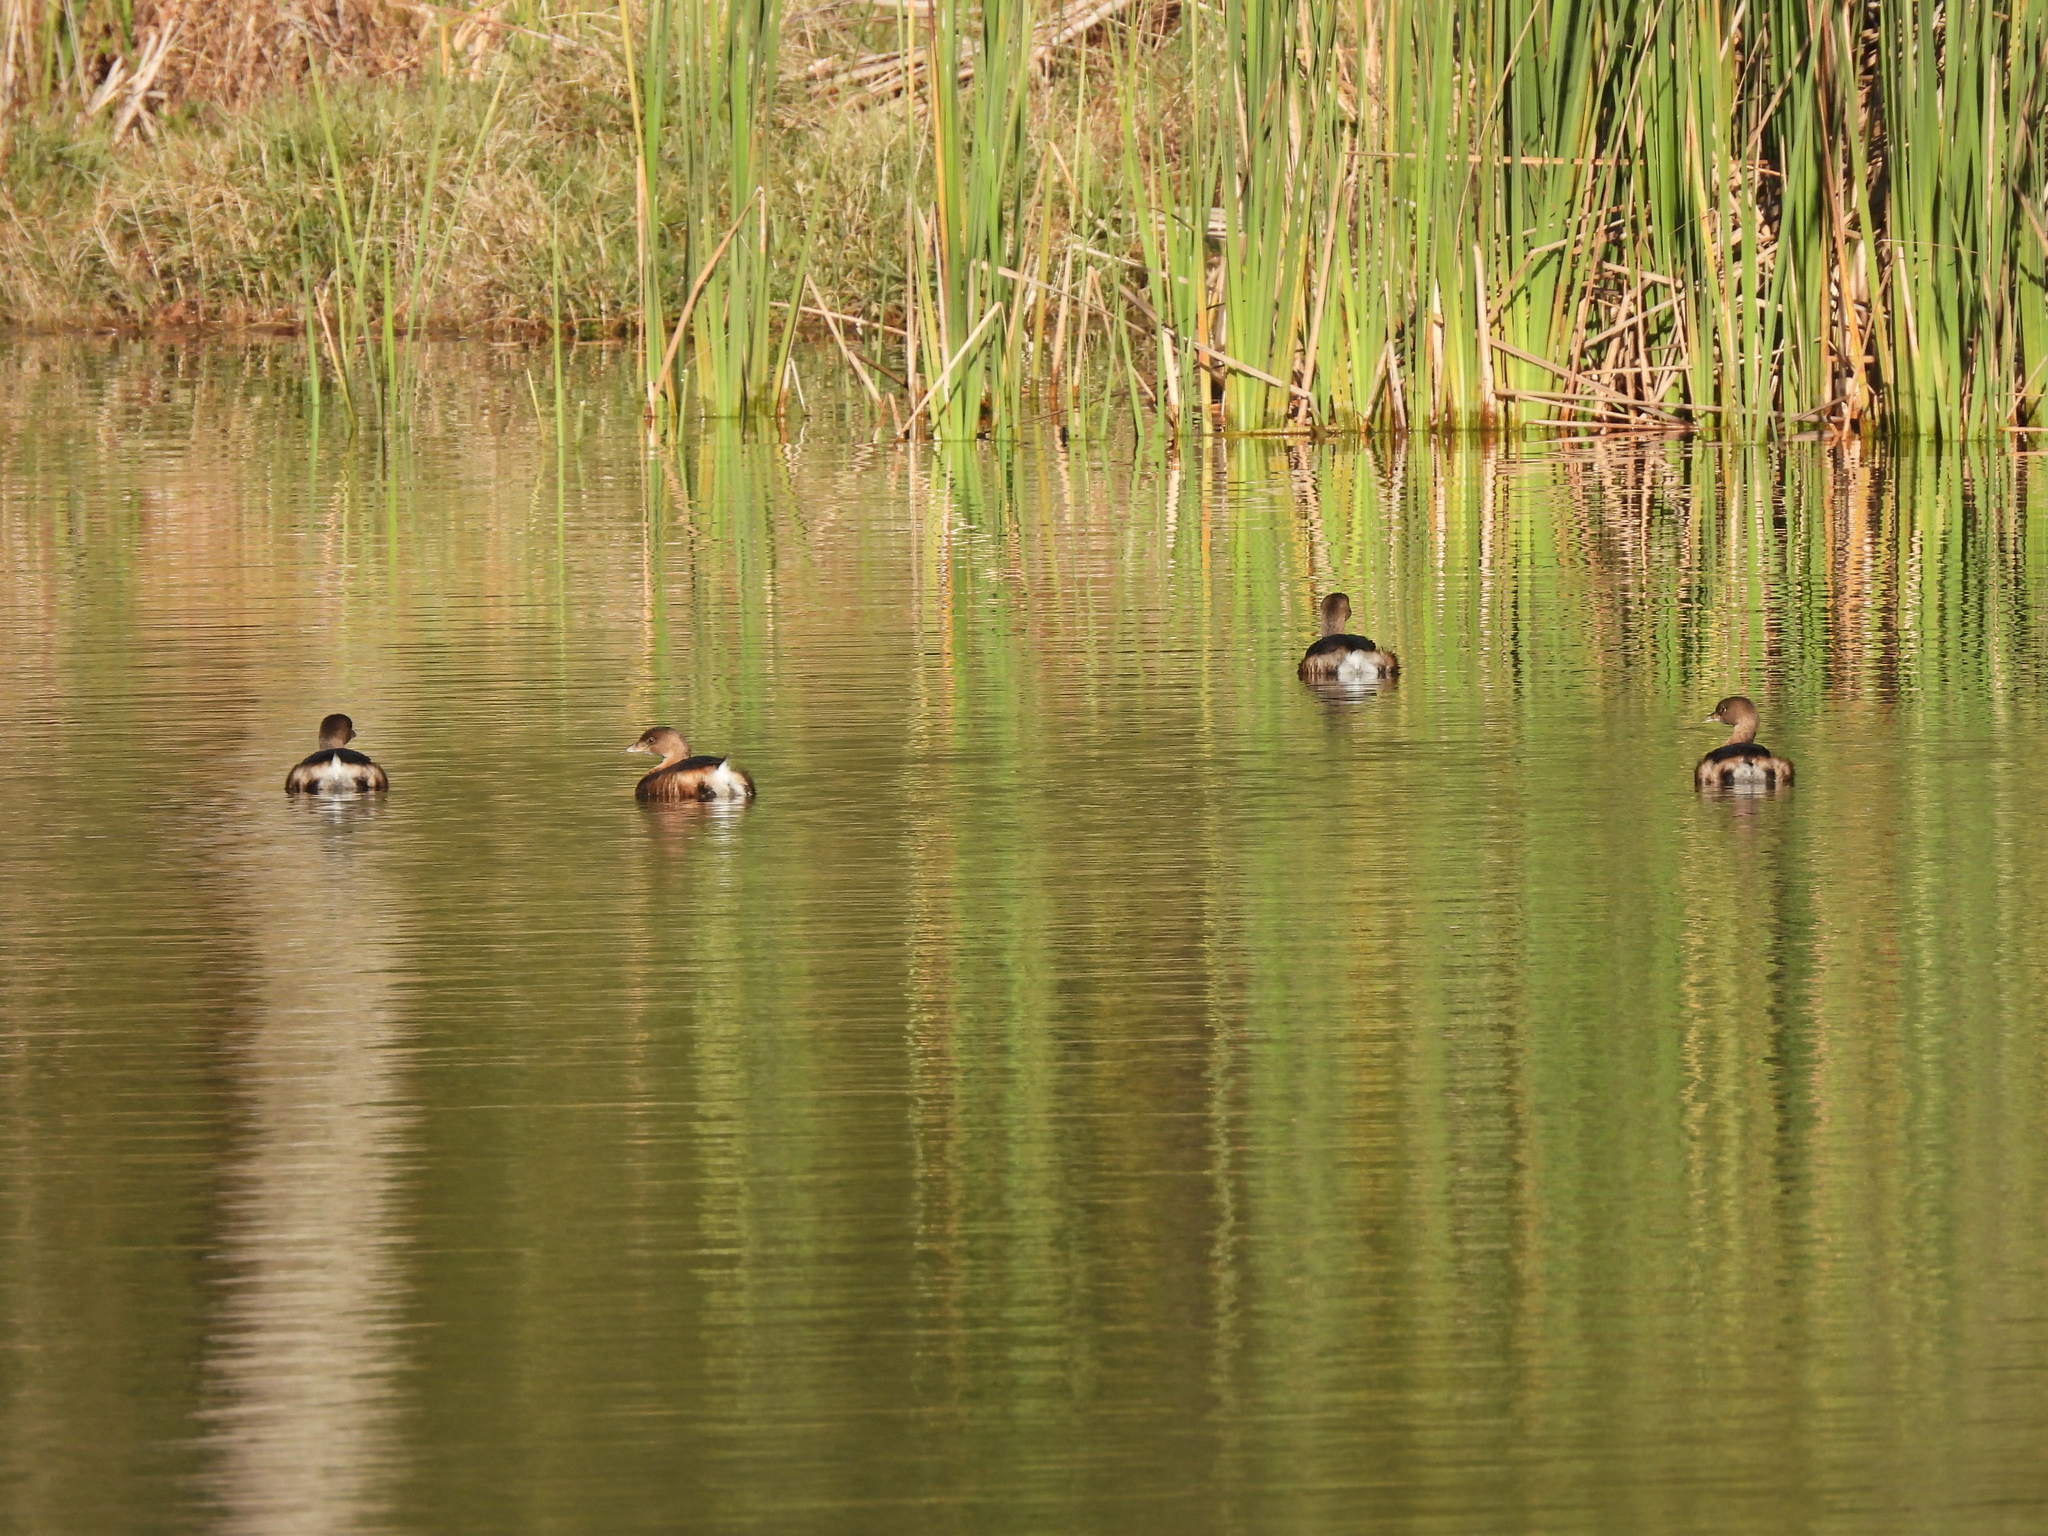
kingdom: Animalia
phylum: Chordata
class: Aves
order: Podicipediformes
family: Podicipedidae
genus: Podilymbus
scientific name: Podilymbus podiceps
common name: Pied-billed grebe
